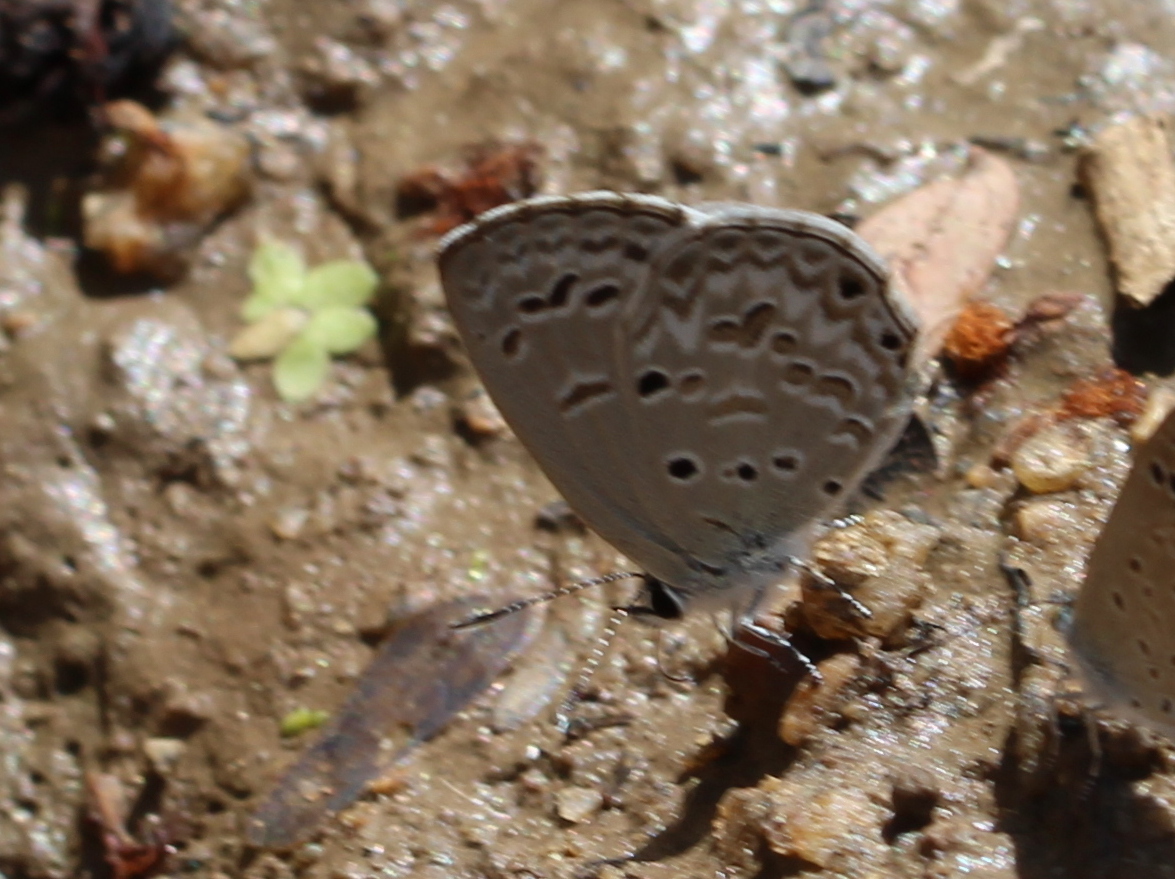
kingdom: Animalia
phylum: Arthropoda
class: Insecta
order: Lepidoptera
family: Lycaenidae
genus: Chilades
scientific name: Chilades laius
